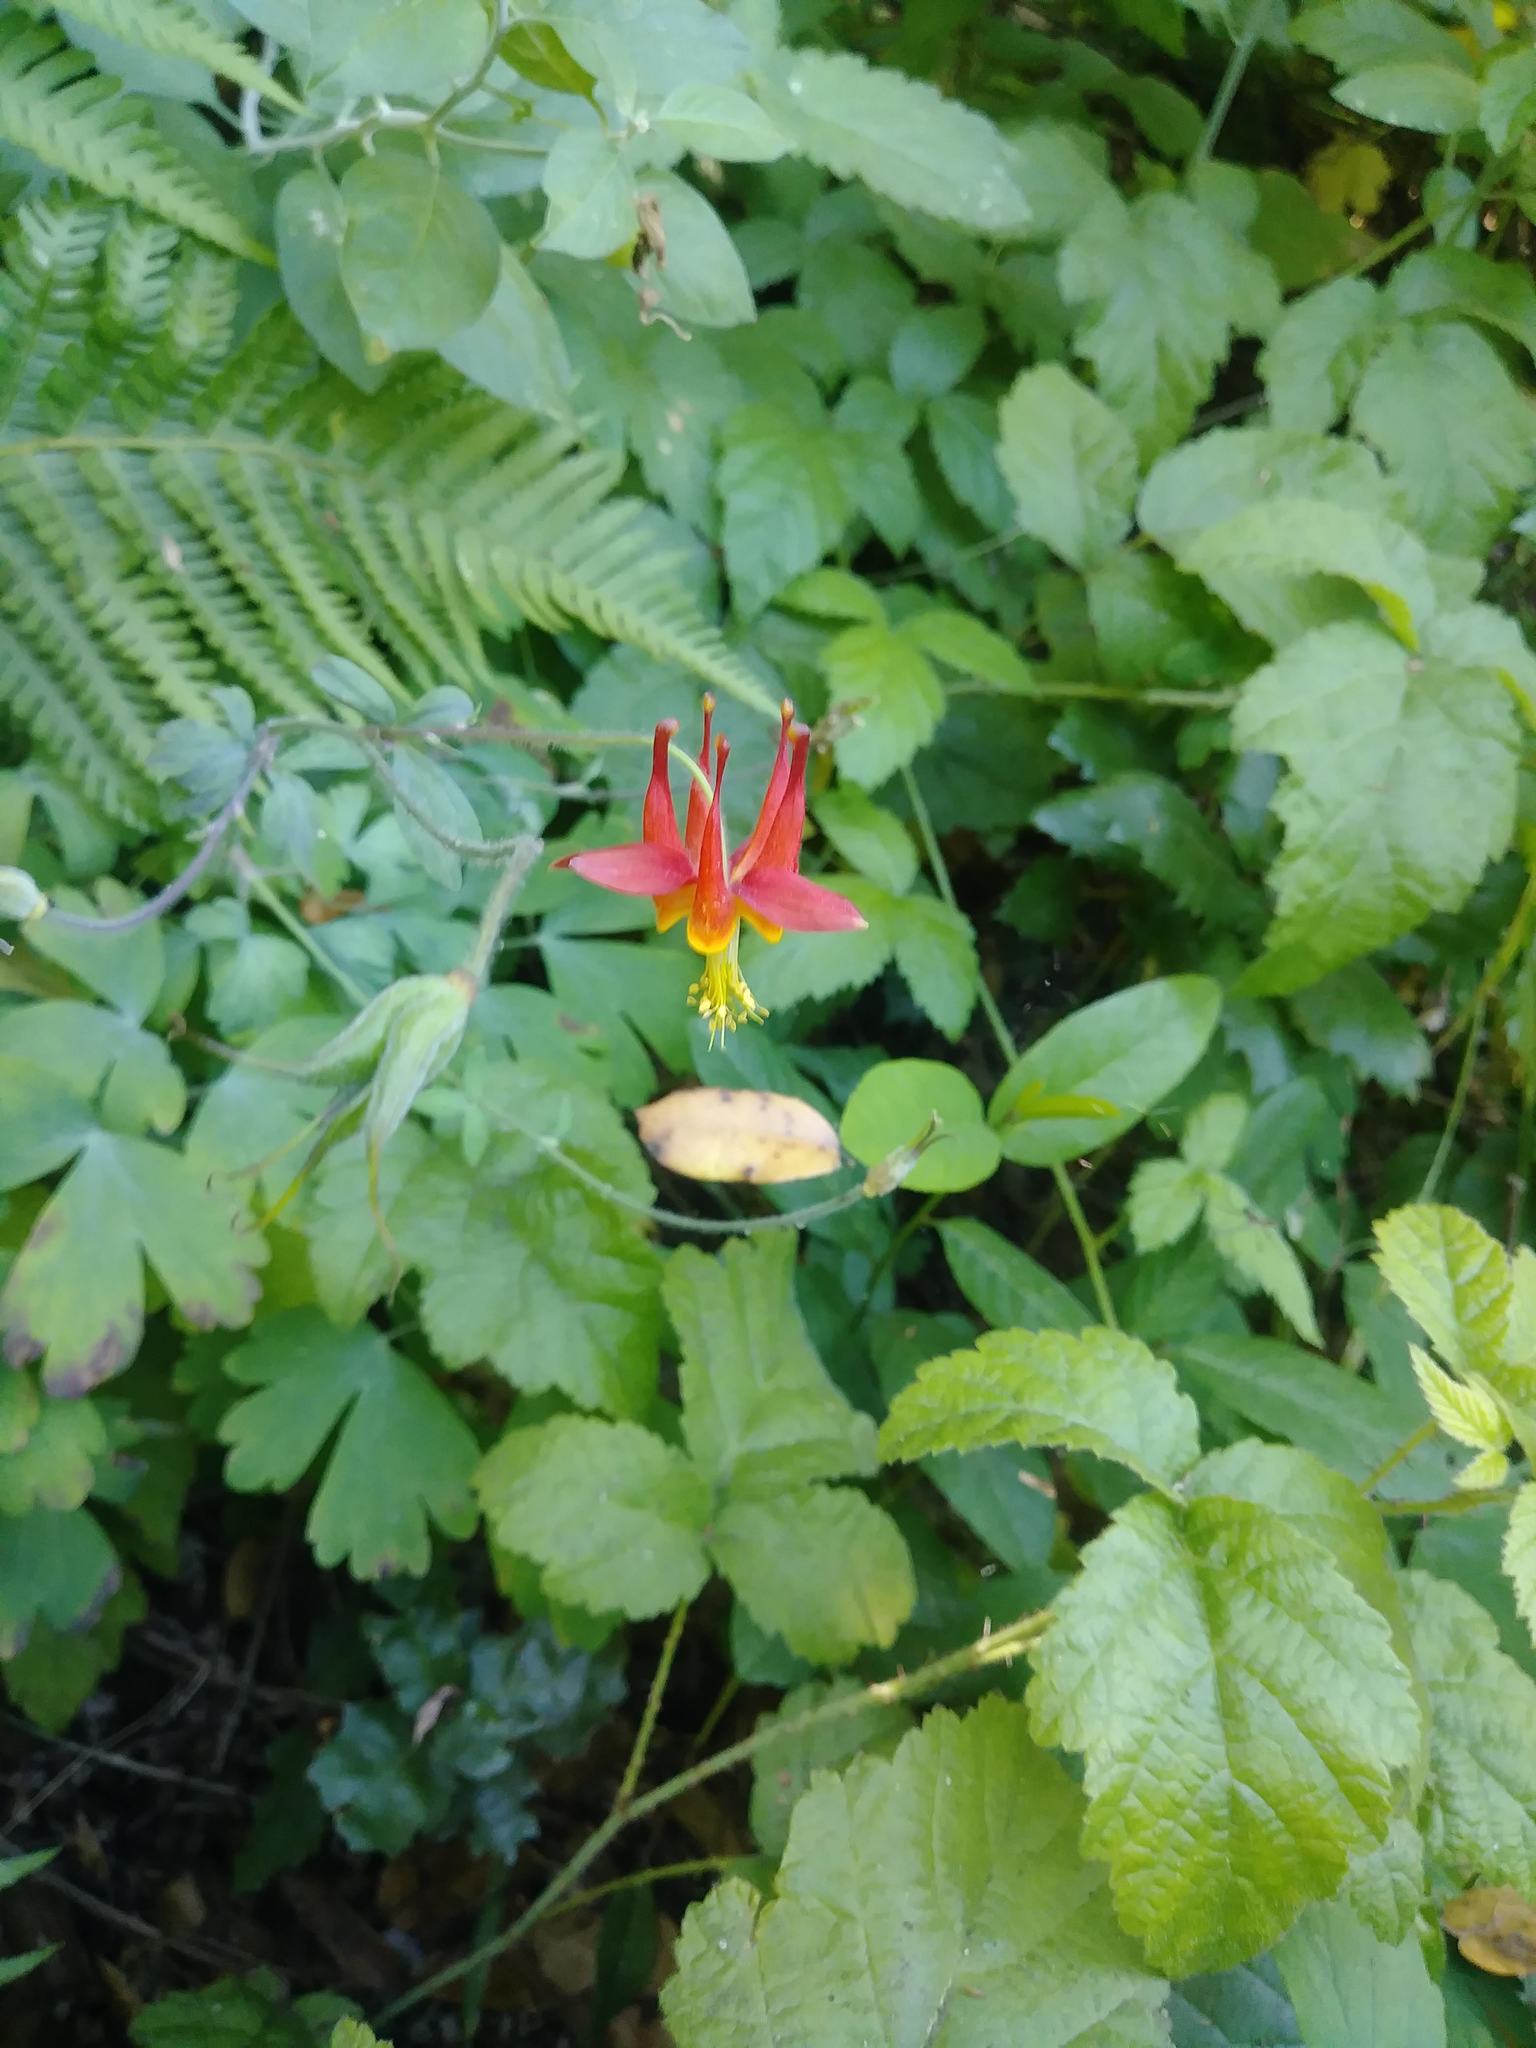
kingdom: Plantae
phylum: Tracheophyta
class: Magnoliopsida
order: Ranunculales
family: Ranunculaceae
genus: Aquilegia
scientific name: Aquilegia formosa
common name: Sitka columbine
